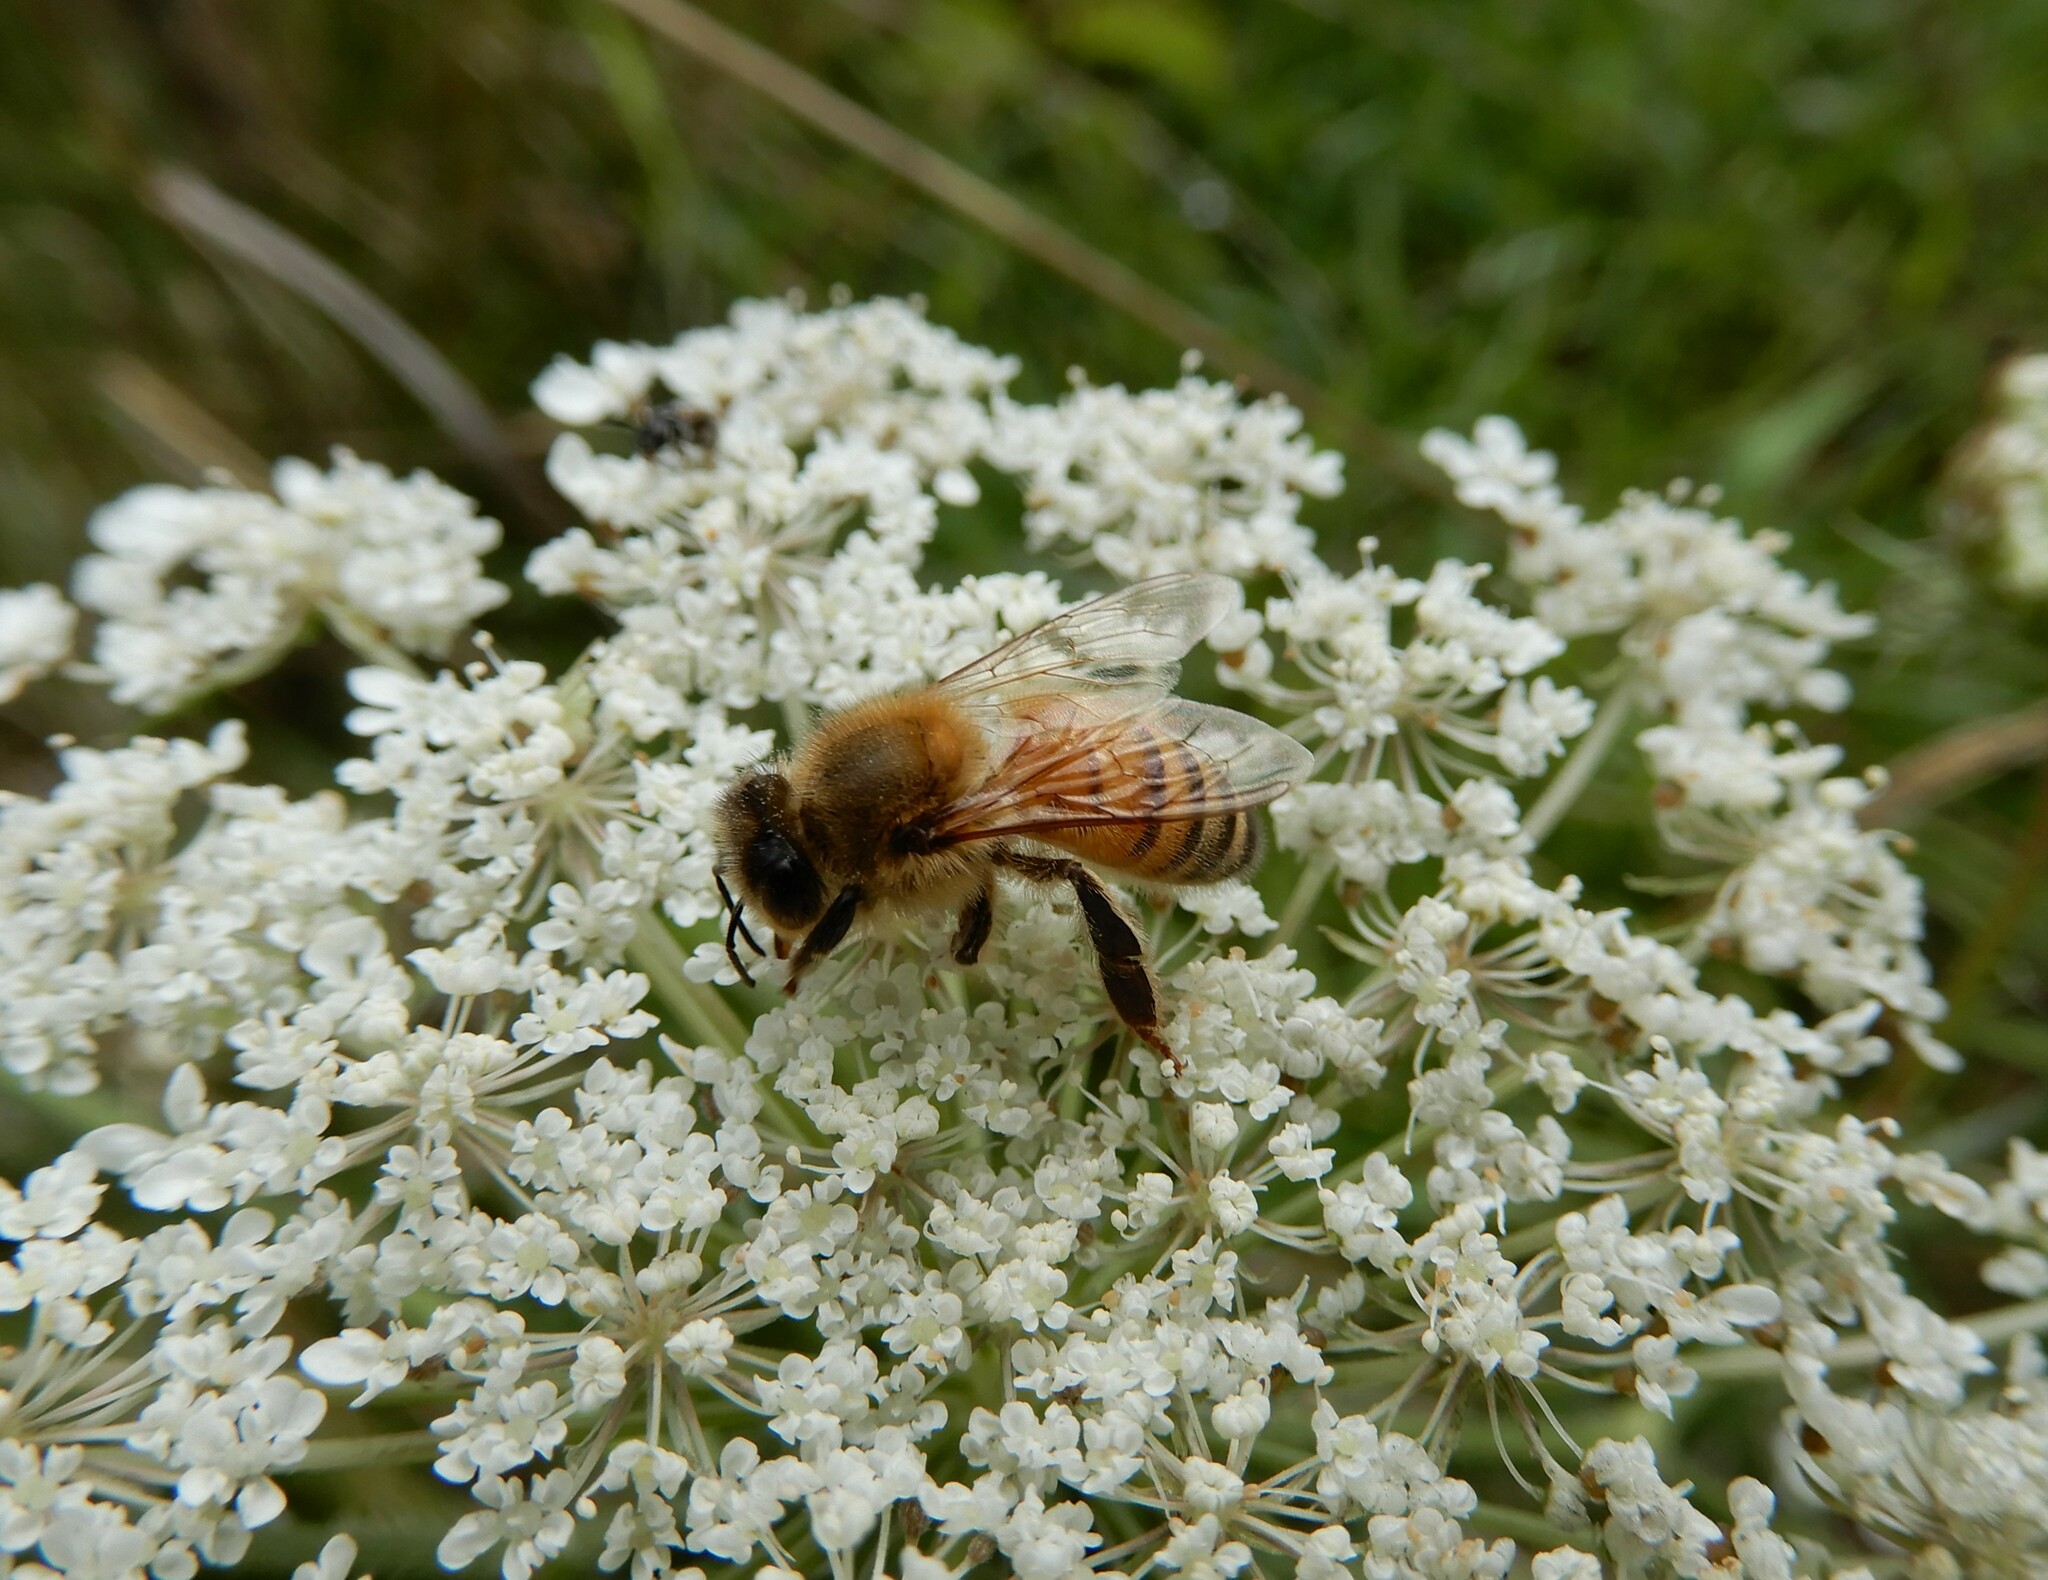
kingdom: Animalia
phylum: Arthropoda
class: Insecta
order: Hymenoptera
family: Apidae
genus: Apis
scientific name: Apis mellifera
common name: Honey bee
